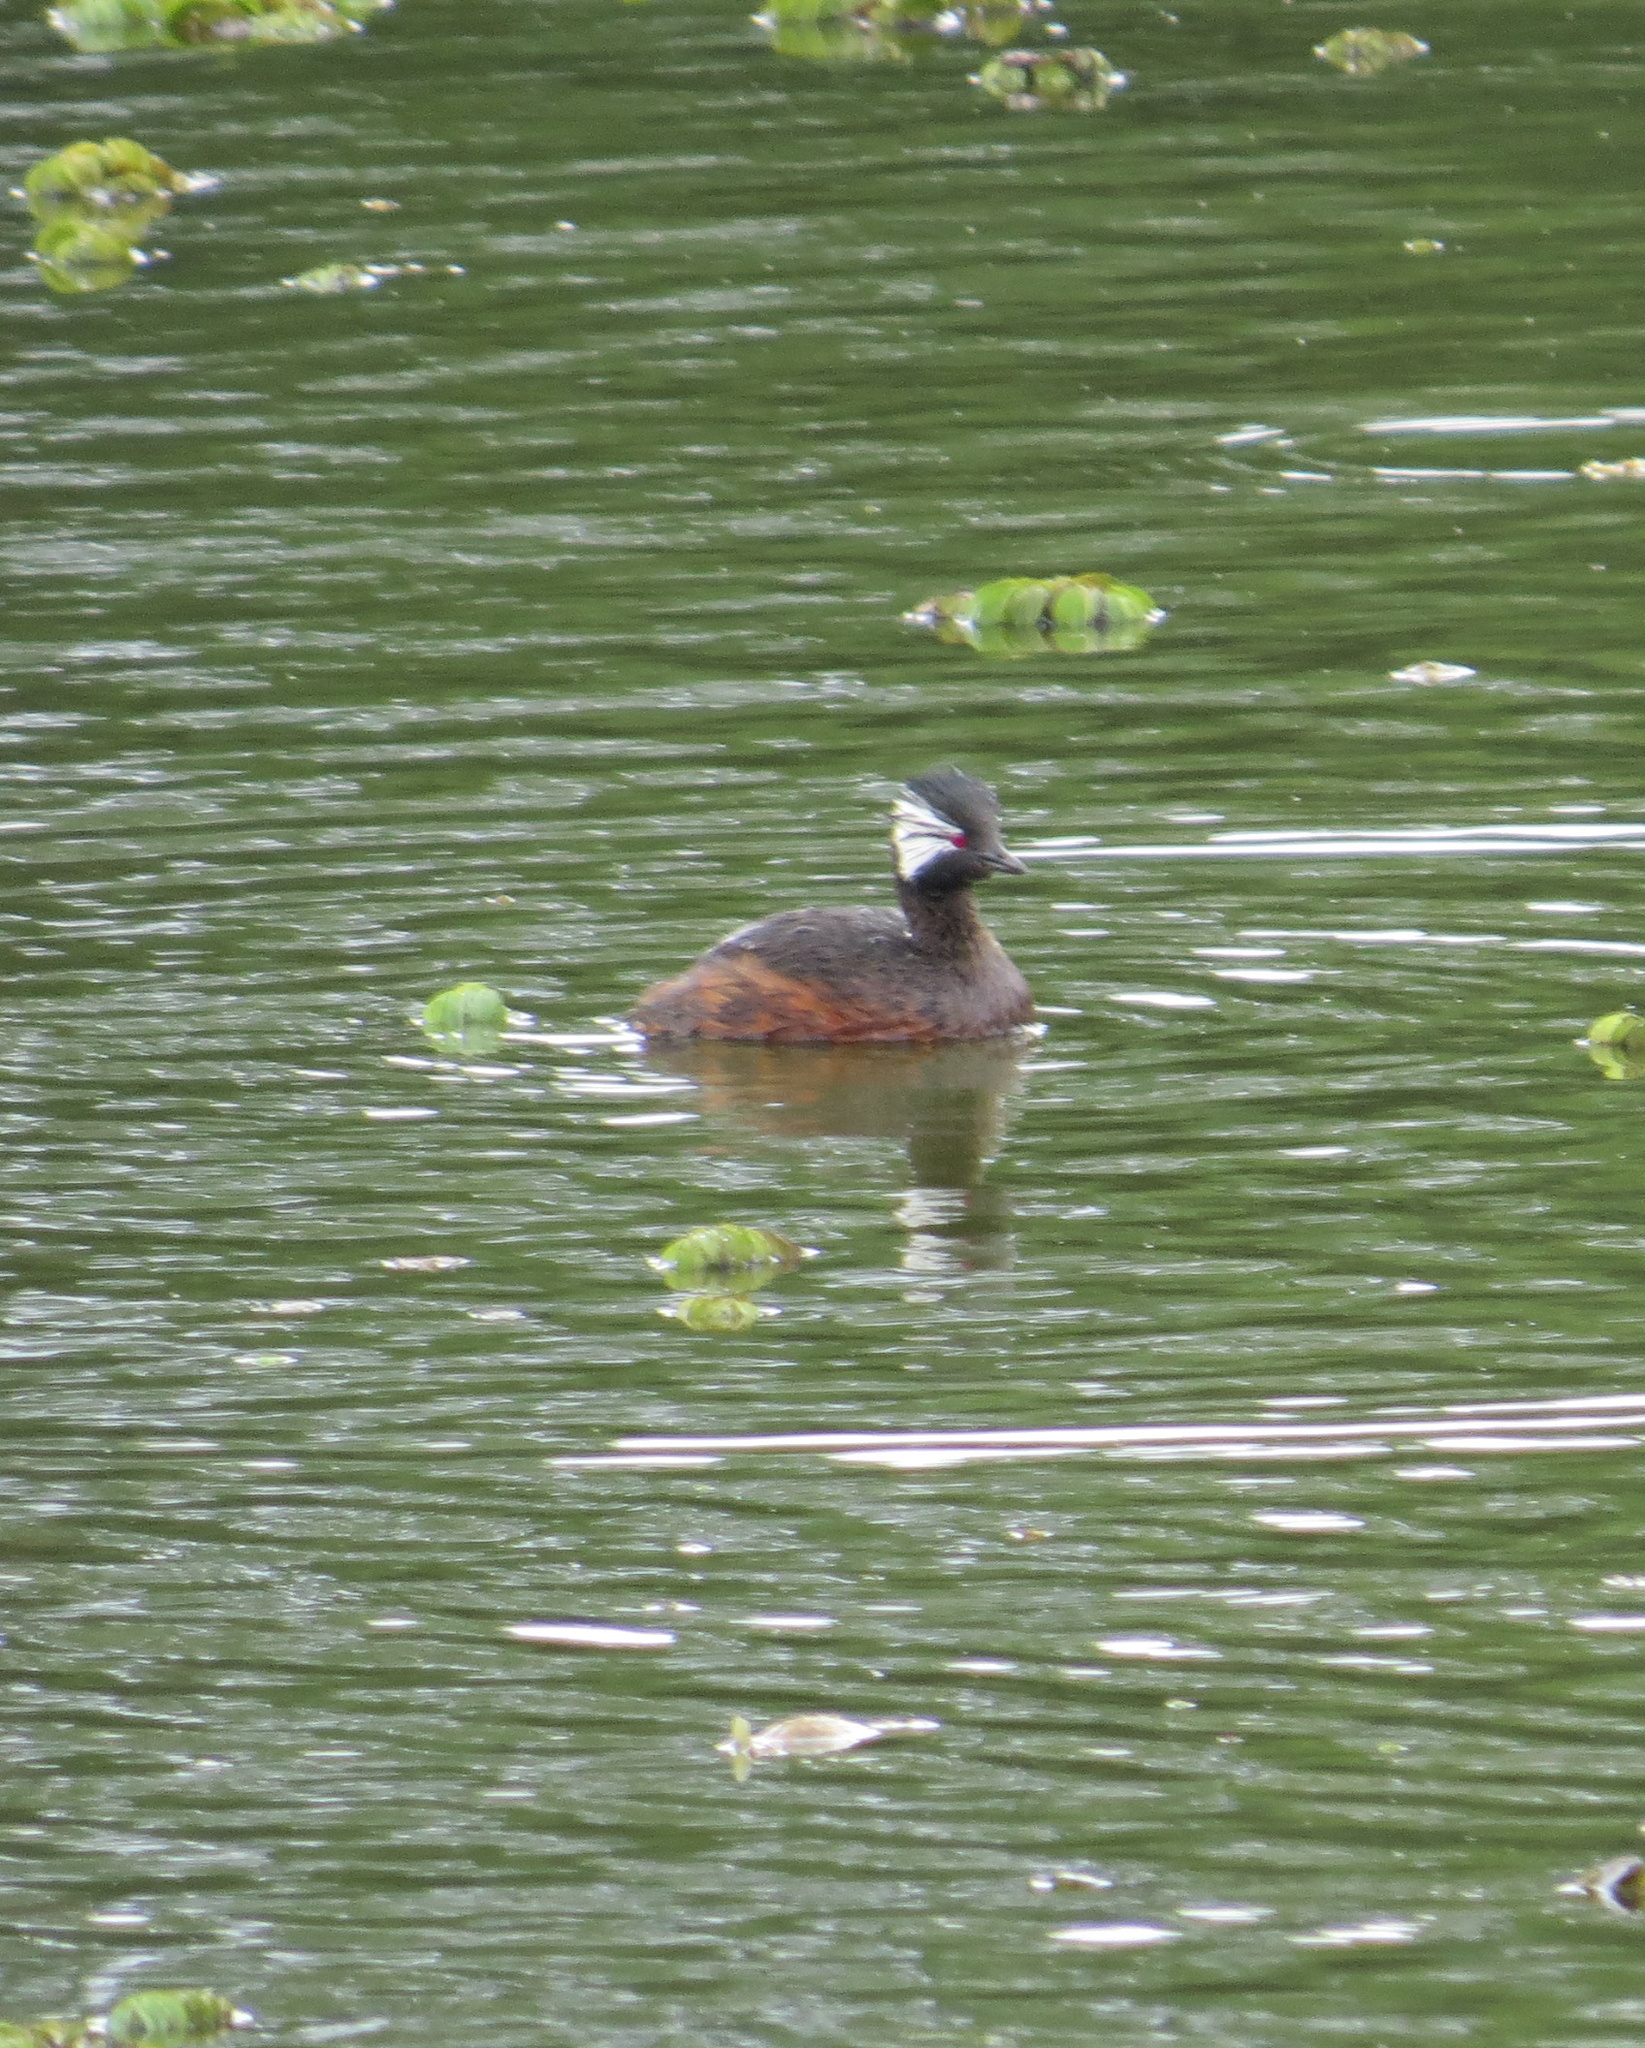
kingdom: Animalia
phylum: Chordata
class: Aves
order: Podicipediformes
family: Podicipedidae
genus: Rollandia
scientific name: Rollandia rolland
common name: White-tufted grebe
